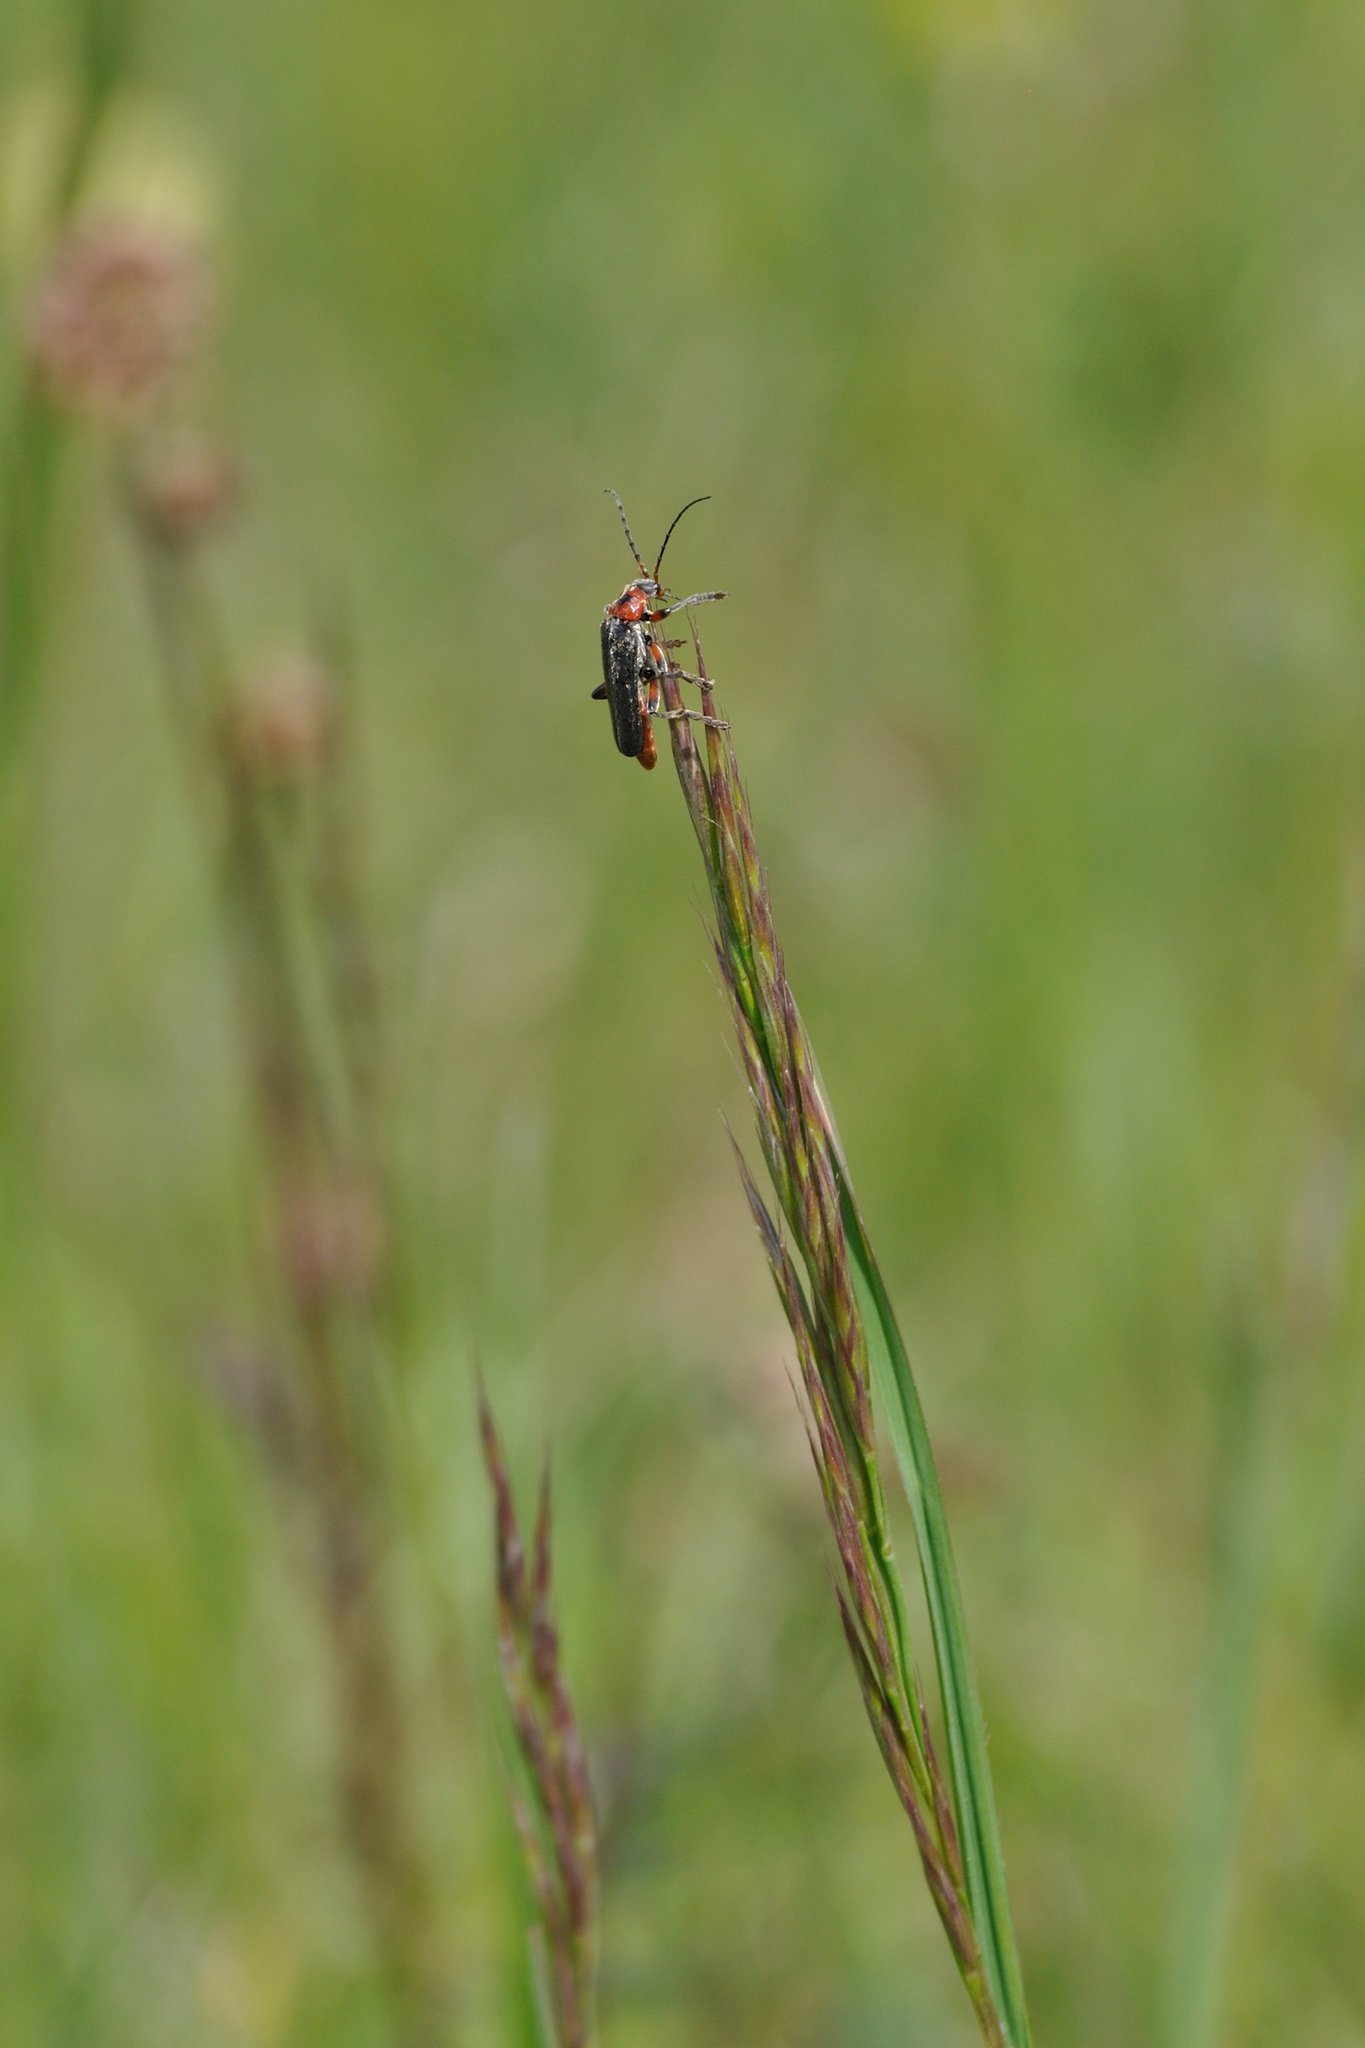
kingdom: Animalia
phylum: Arthropoda
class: Insecta
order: Coleoptera
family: Cantharidae
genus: Cantharis
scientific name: Cantharis rustica
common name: Soldier beetle
